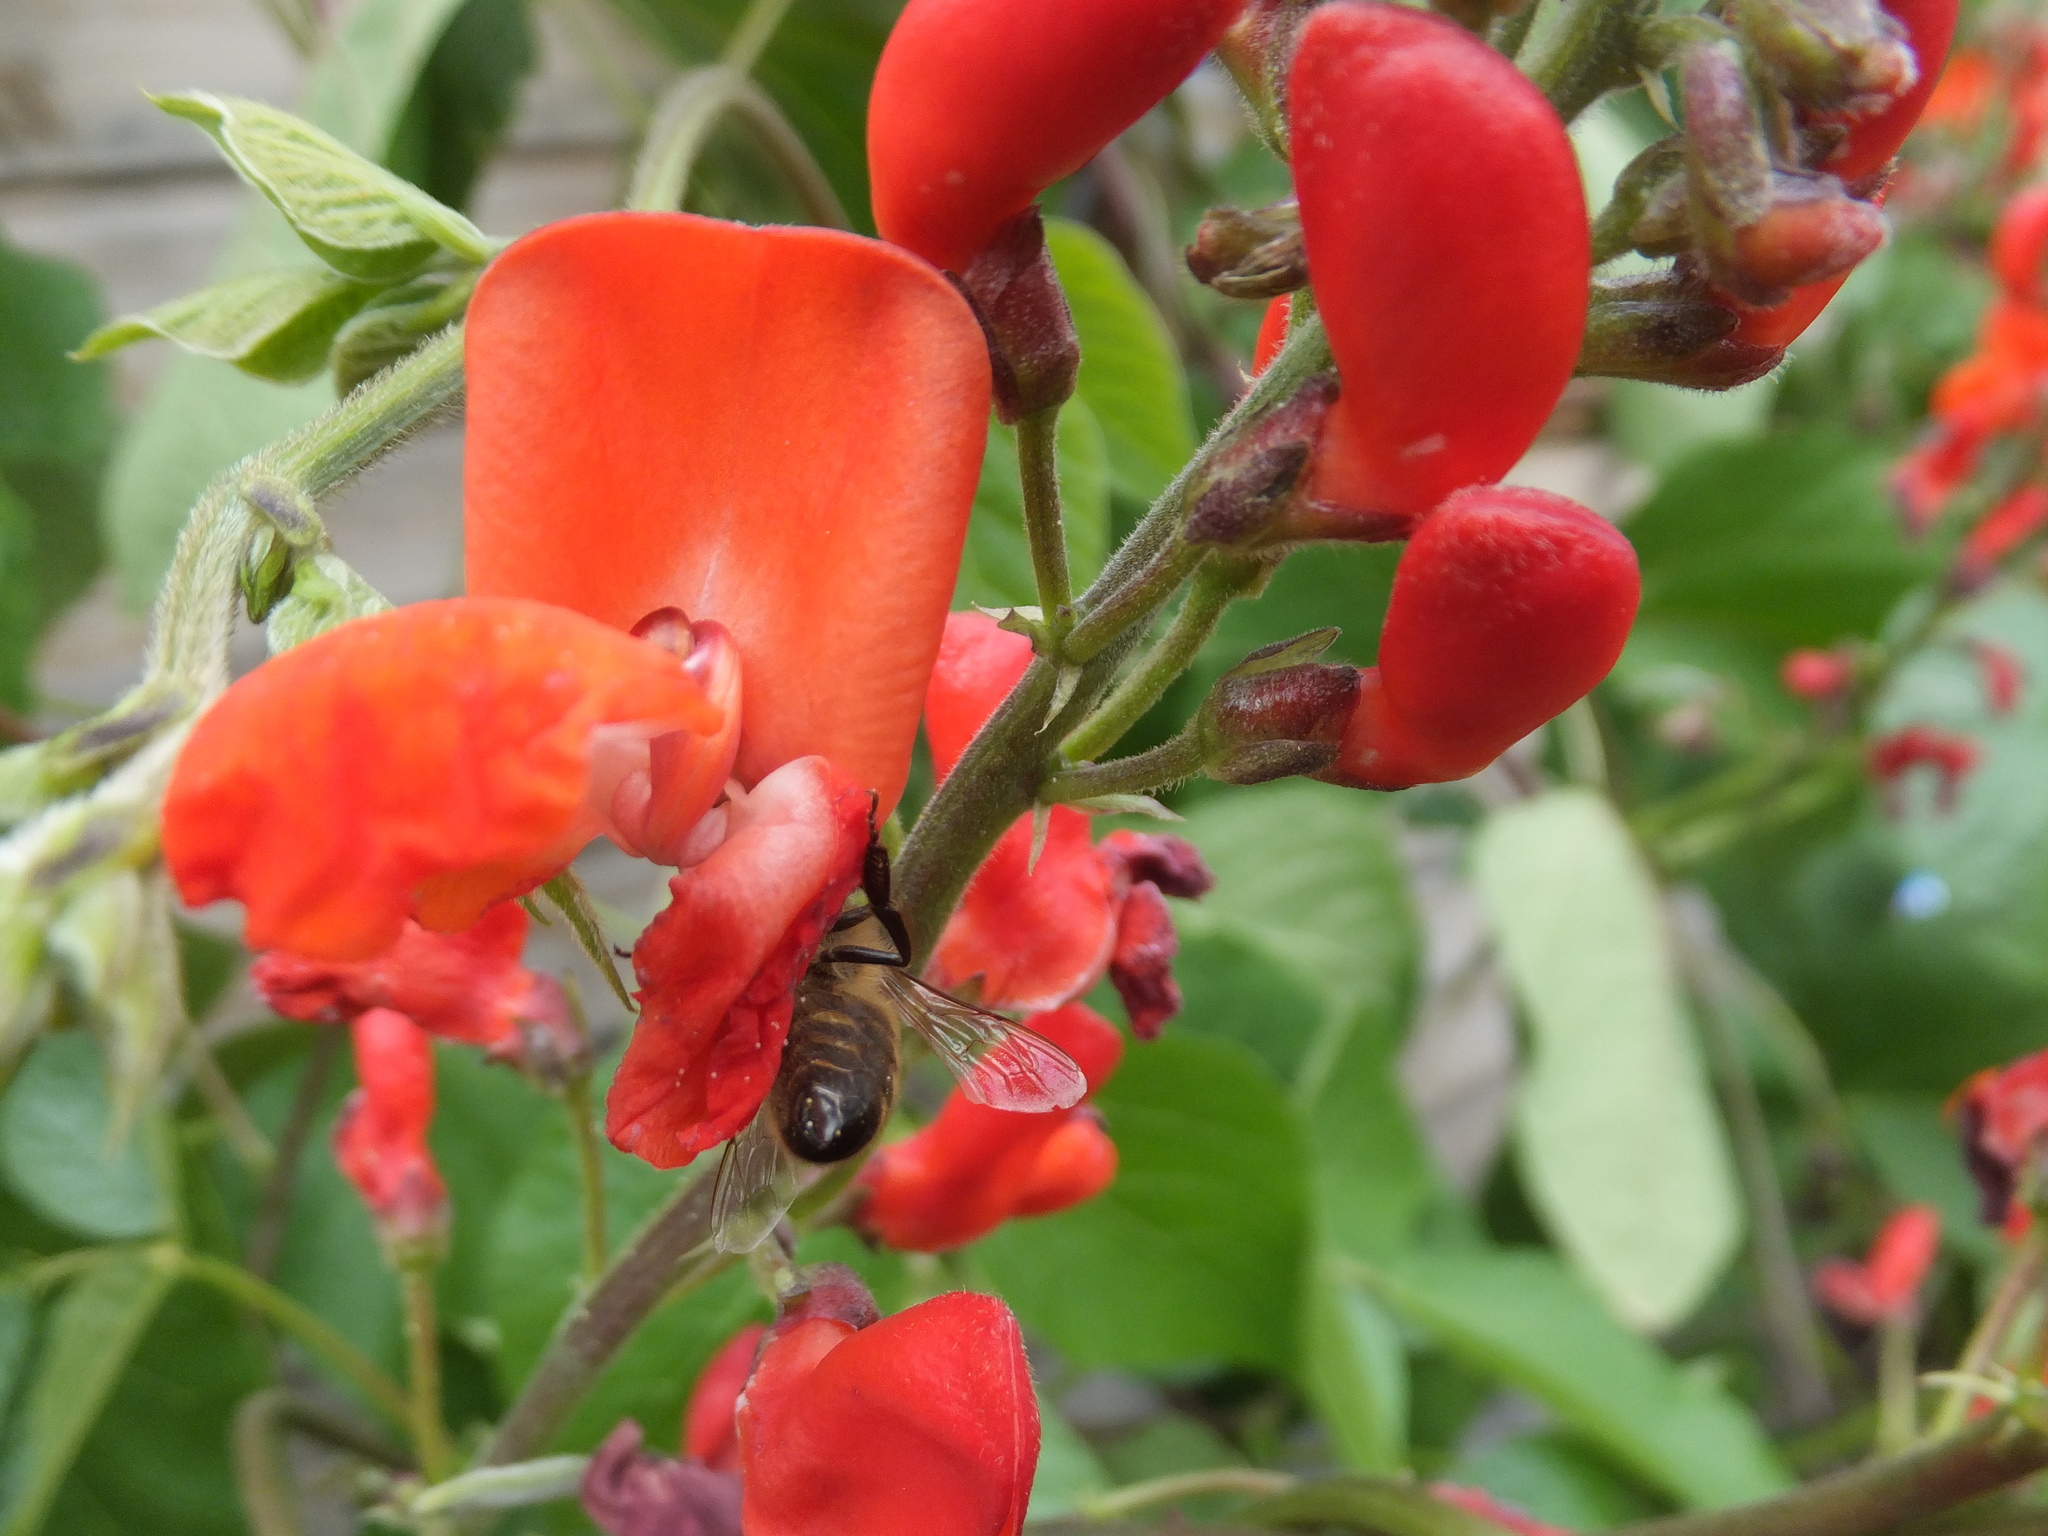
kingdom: Animalia
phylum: Arthropoda
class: Insecta
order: Hymenoptera
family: Apidae
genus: Apis
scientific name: Apis mellifera
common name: Honey bee
